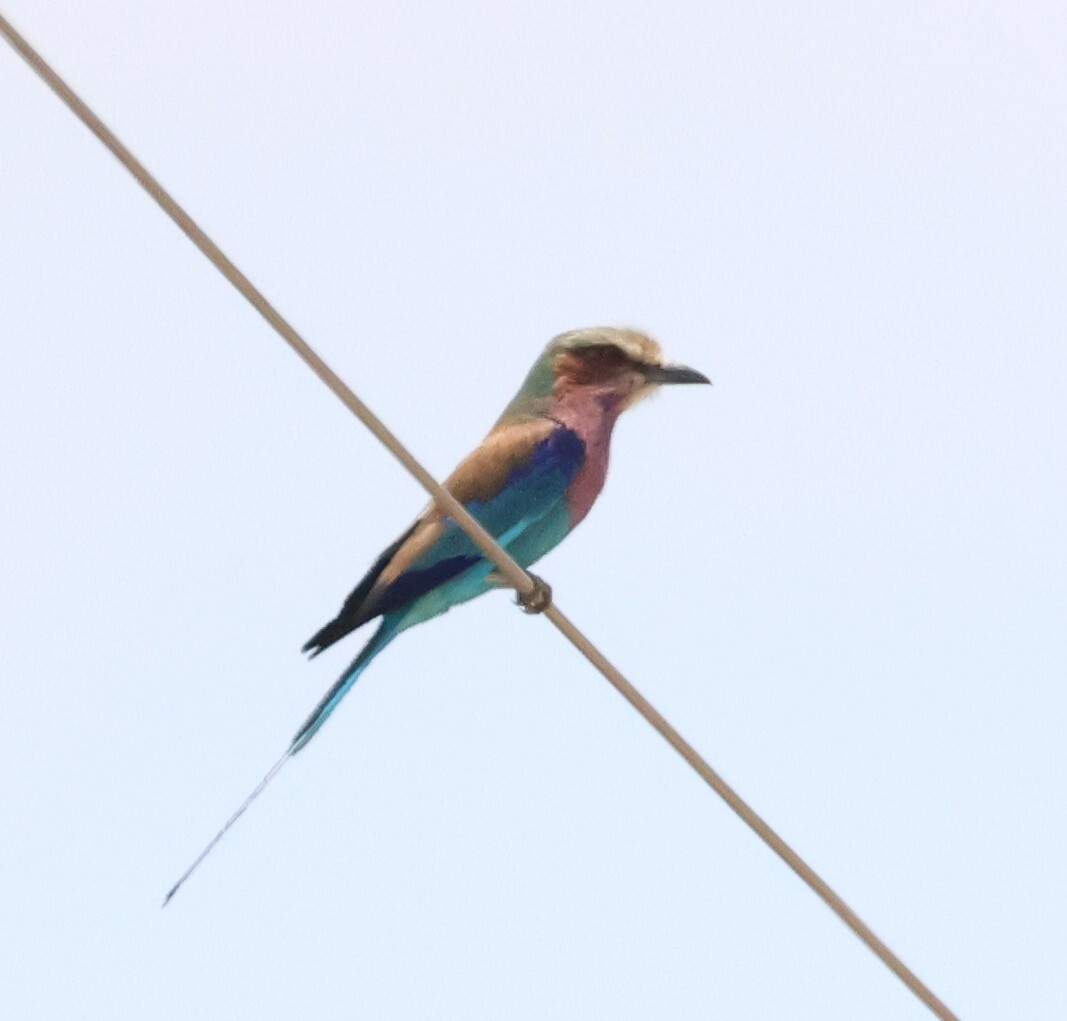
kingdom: Animalia
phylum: Chordata
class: Aves
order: Coraciiformes
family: Coraciidae
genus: Coracias
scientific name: Coracias caudatus
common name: Lilac-breasted roller
